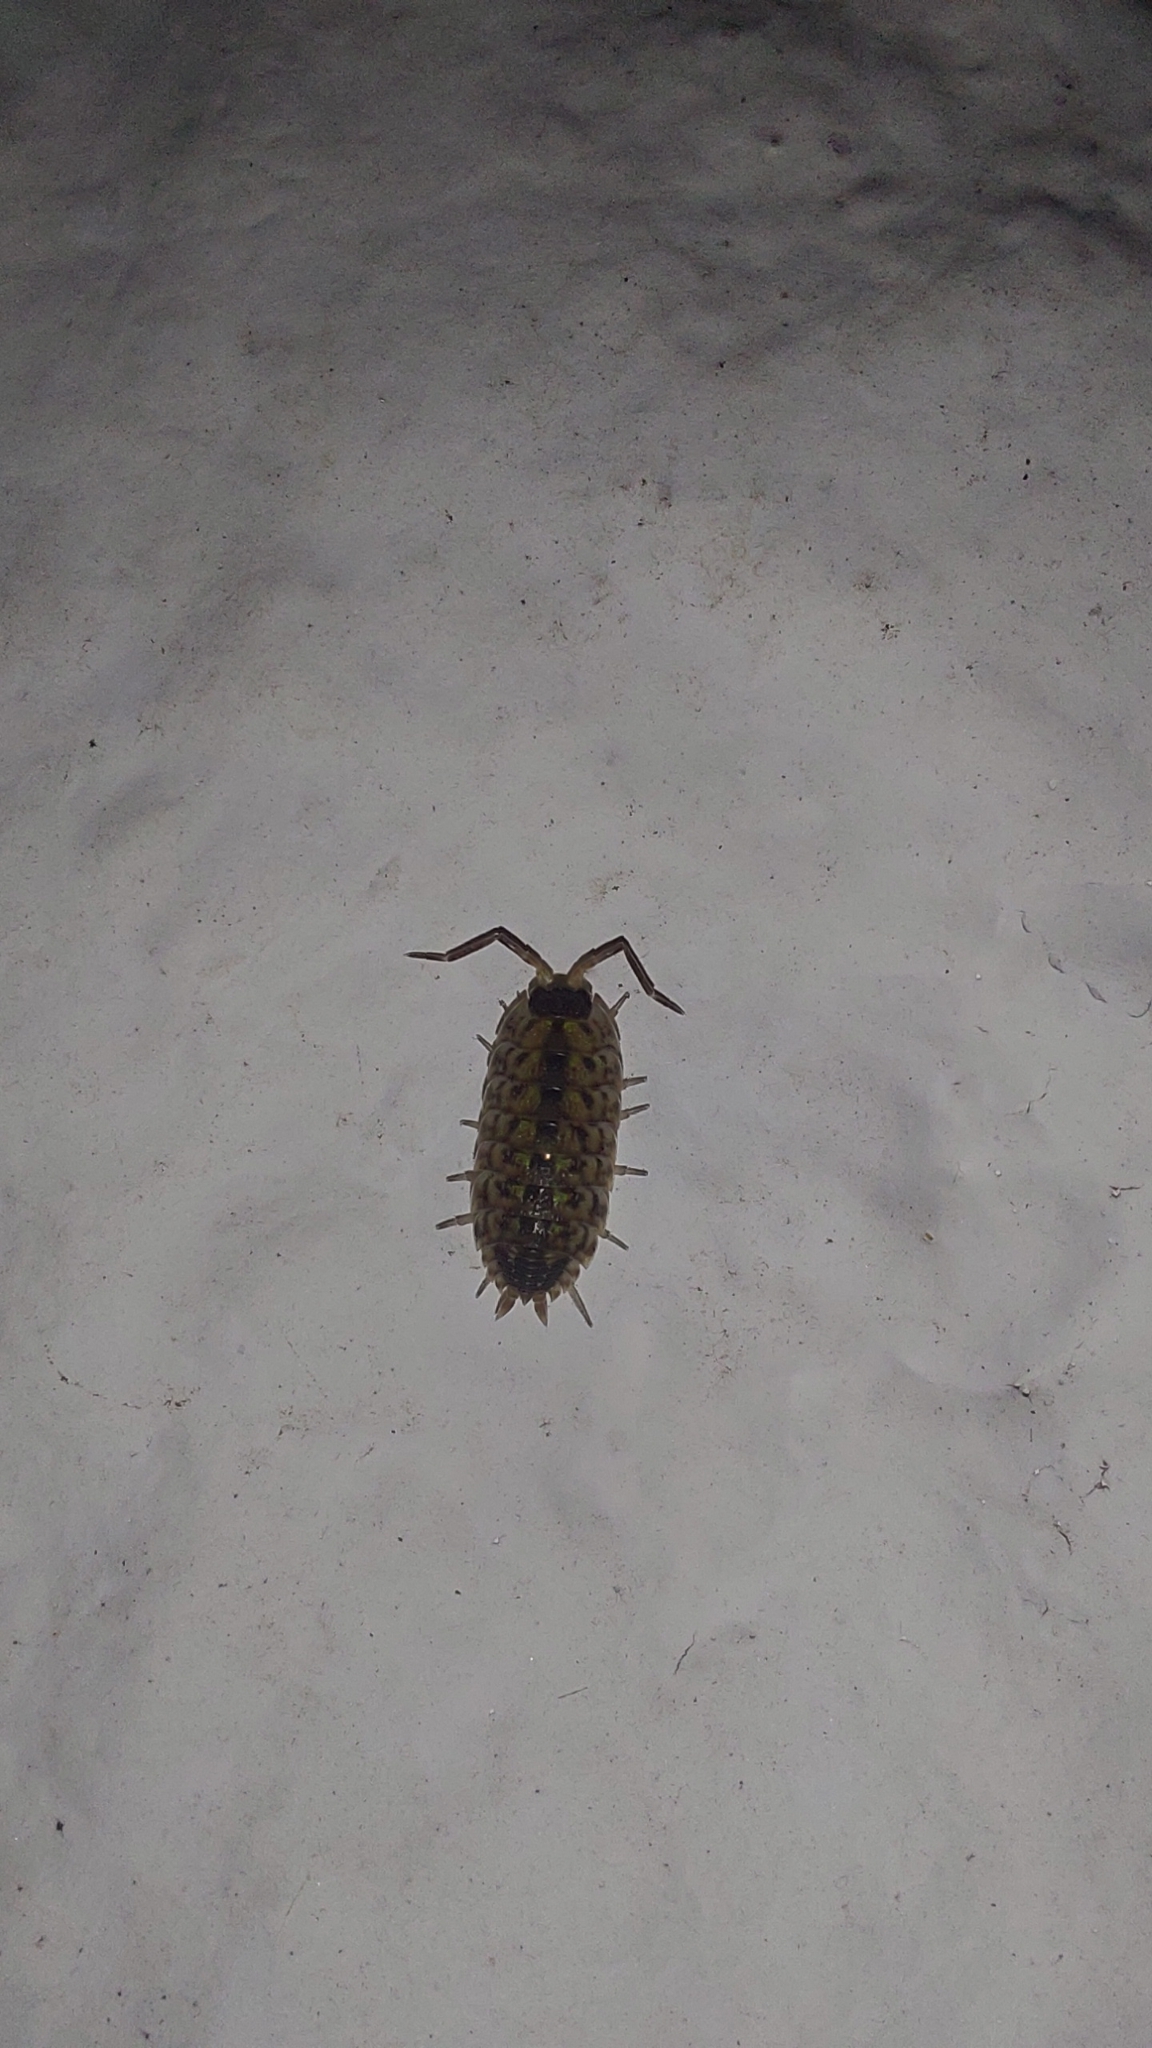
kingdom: Animalia
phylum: Arthropoda
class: Malacostraca
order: Isopoda
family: Porcellionidae
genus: Porcellio
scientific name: Porcellio spinicornis
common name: Painted woodlouse
